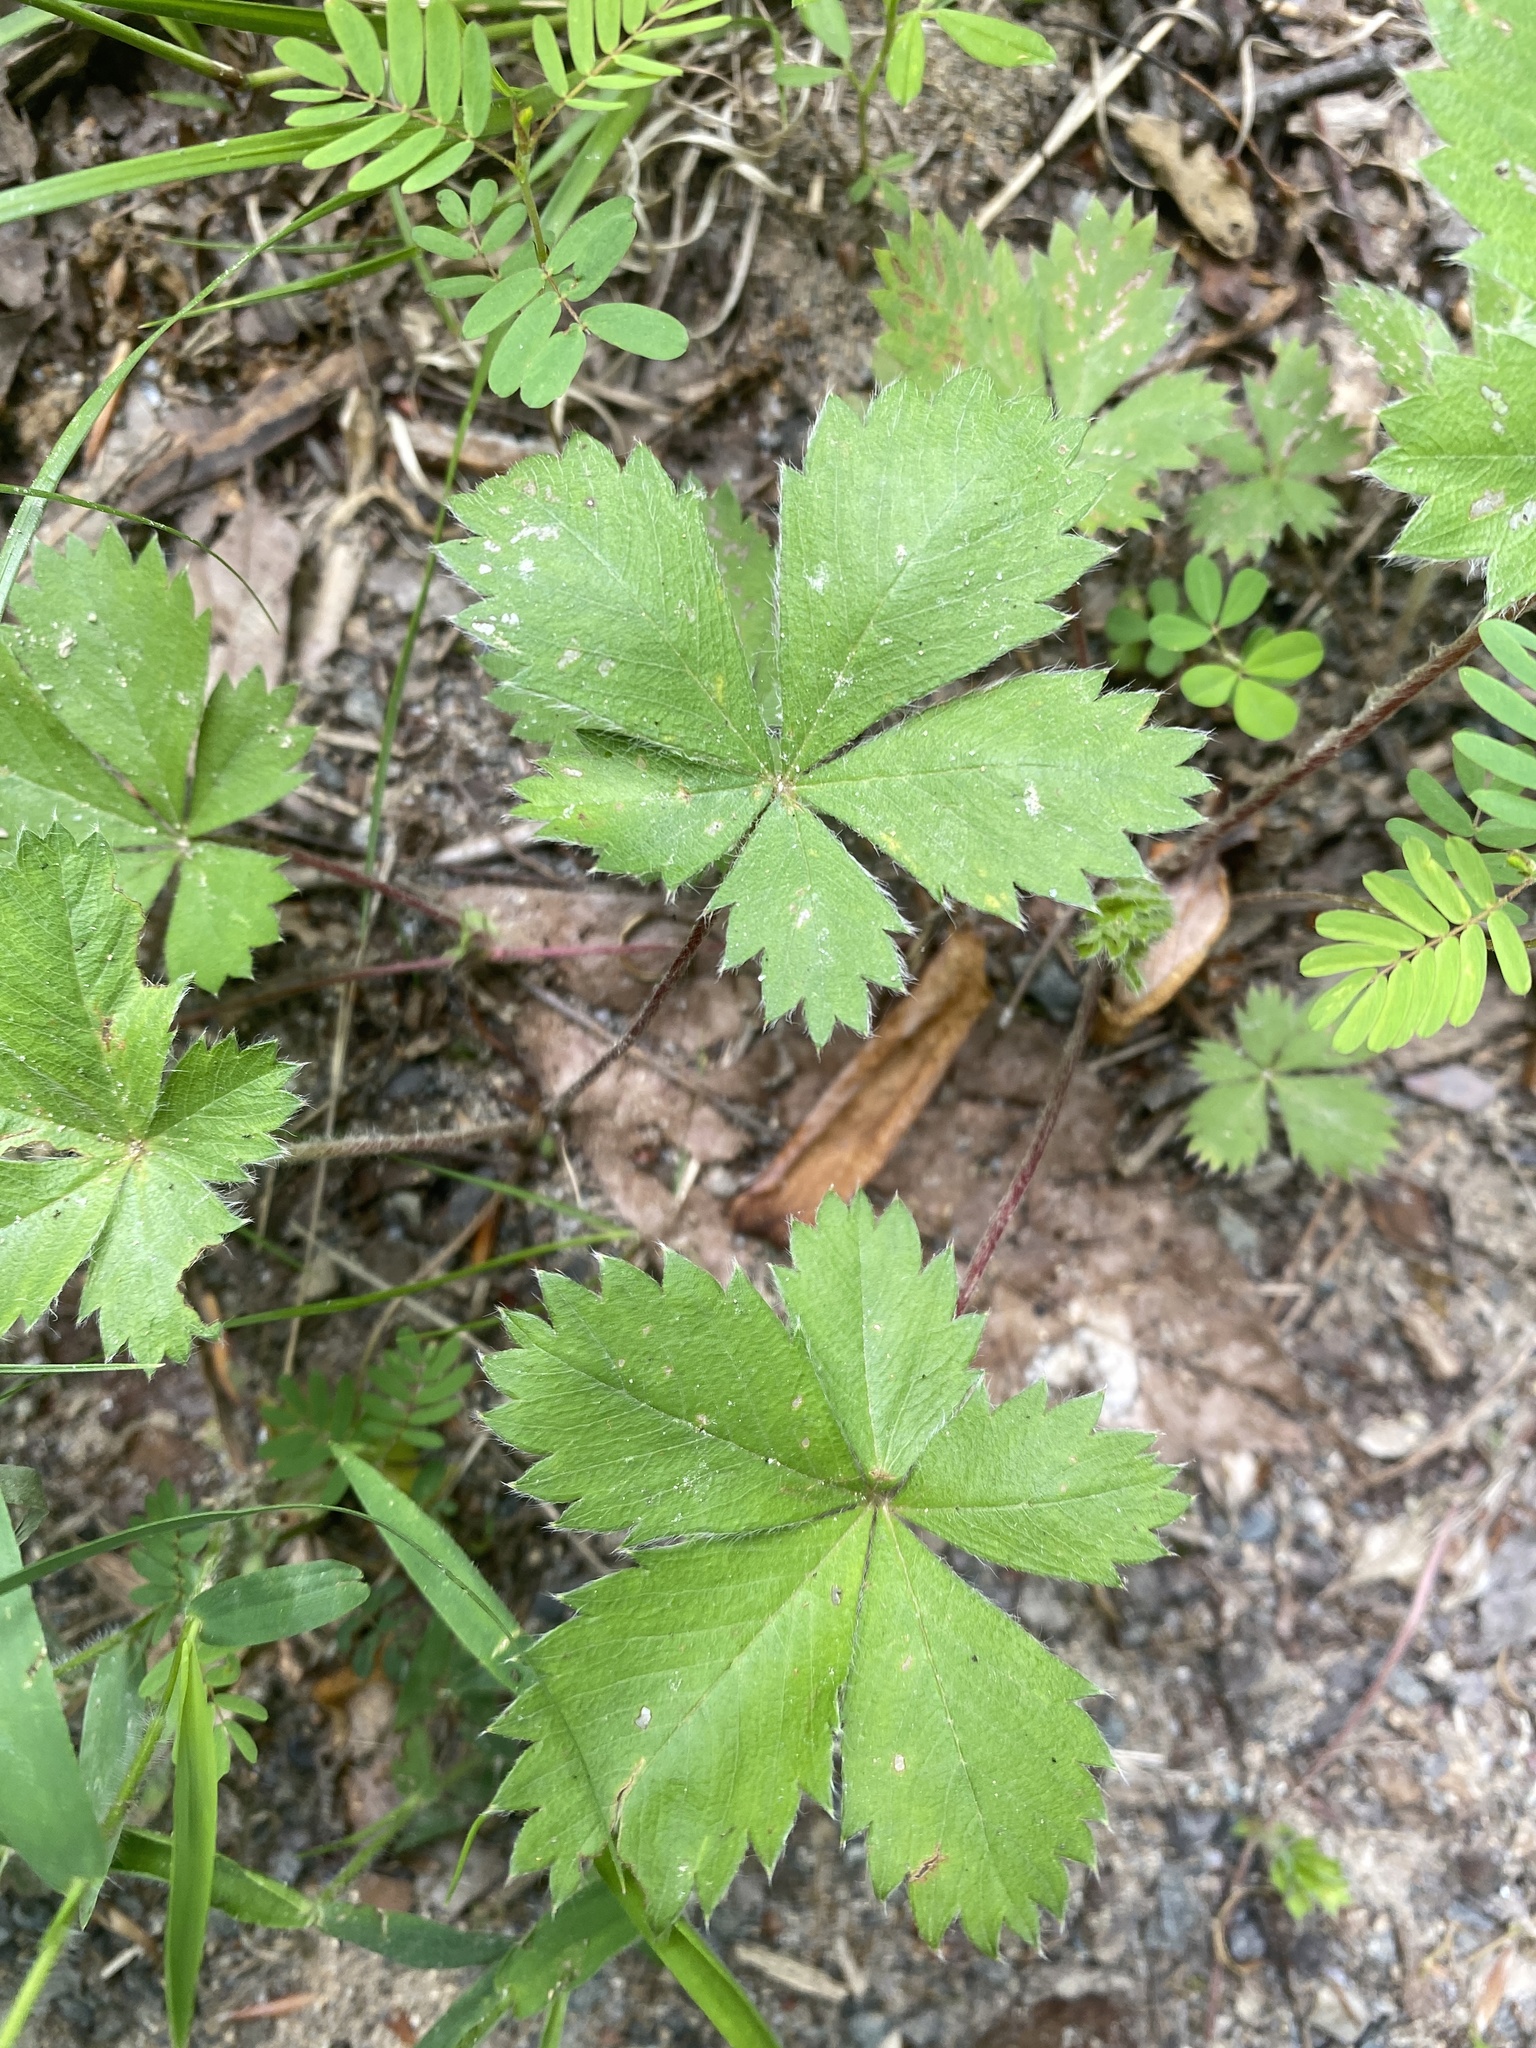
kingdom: Plantae
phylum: Tracheophyta
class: Magnoliopsida
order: Rosales
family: Rosaceae
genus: Potentilla
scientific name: Potentilla canadensis
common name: Canada cinquefoil
